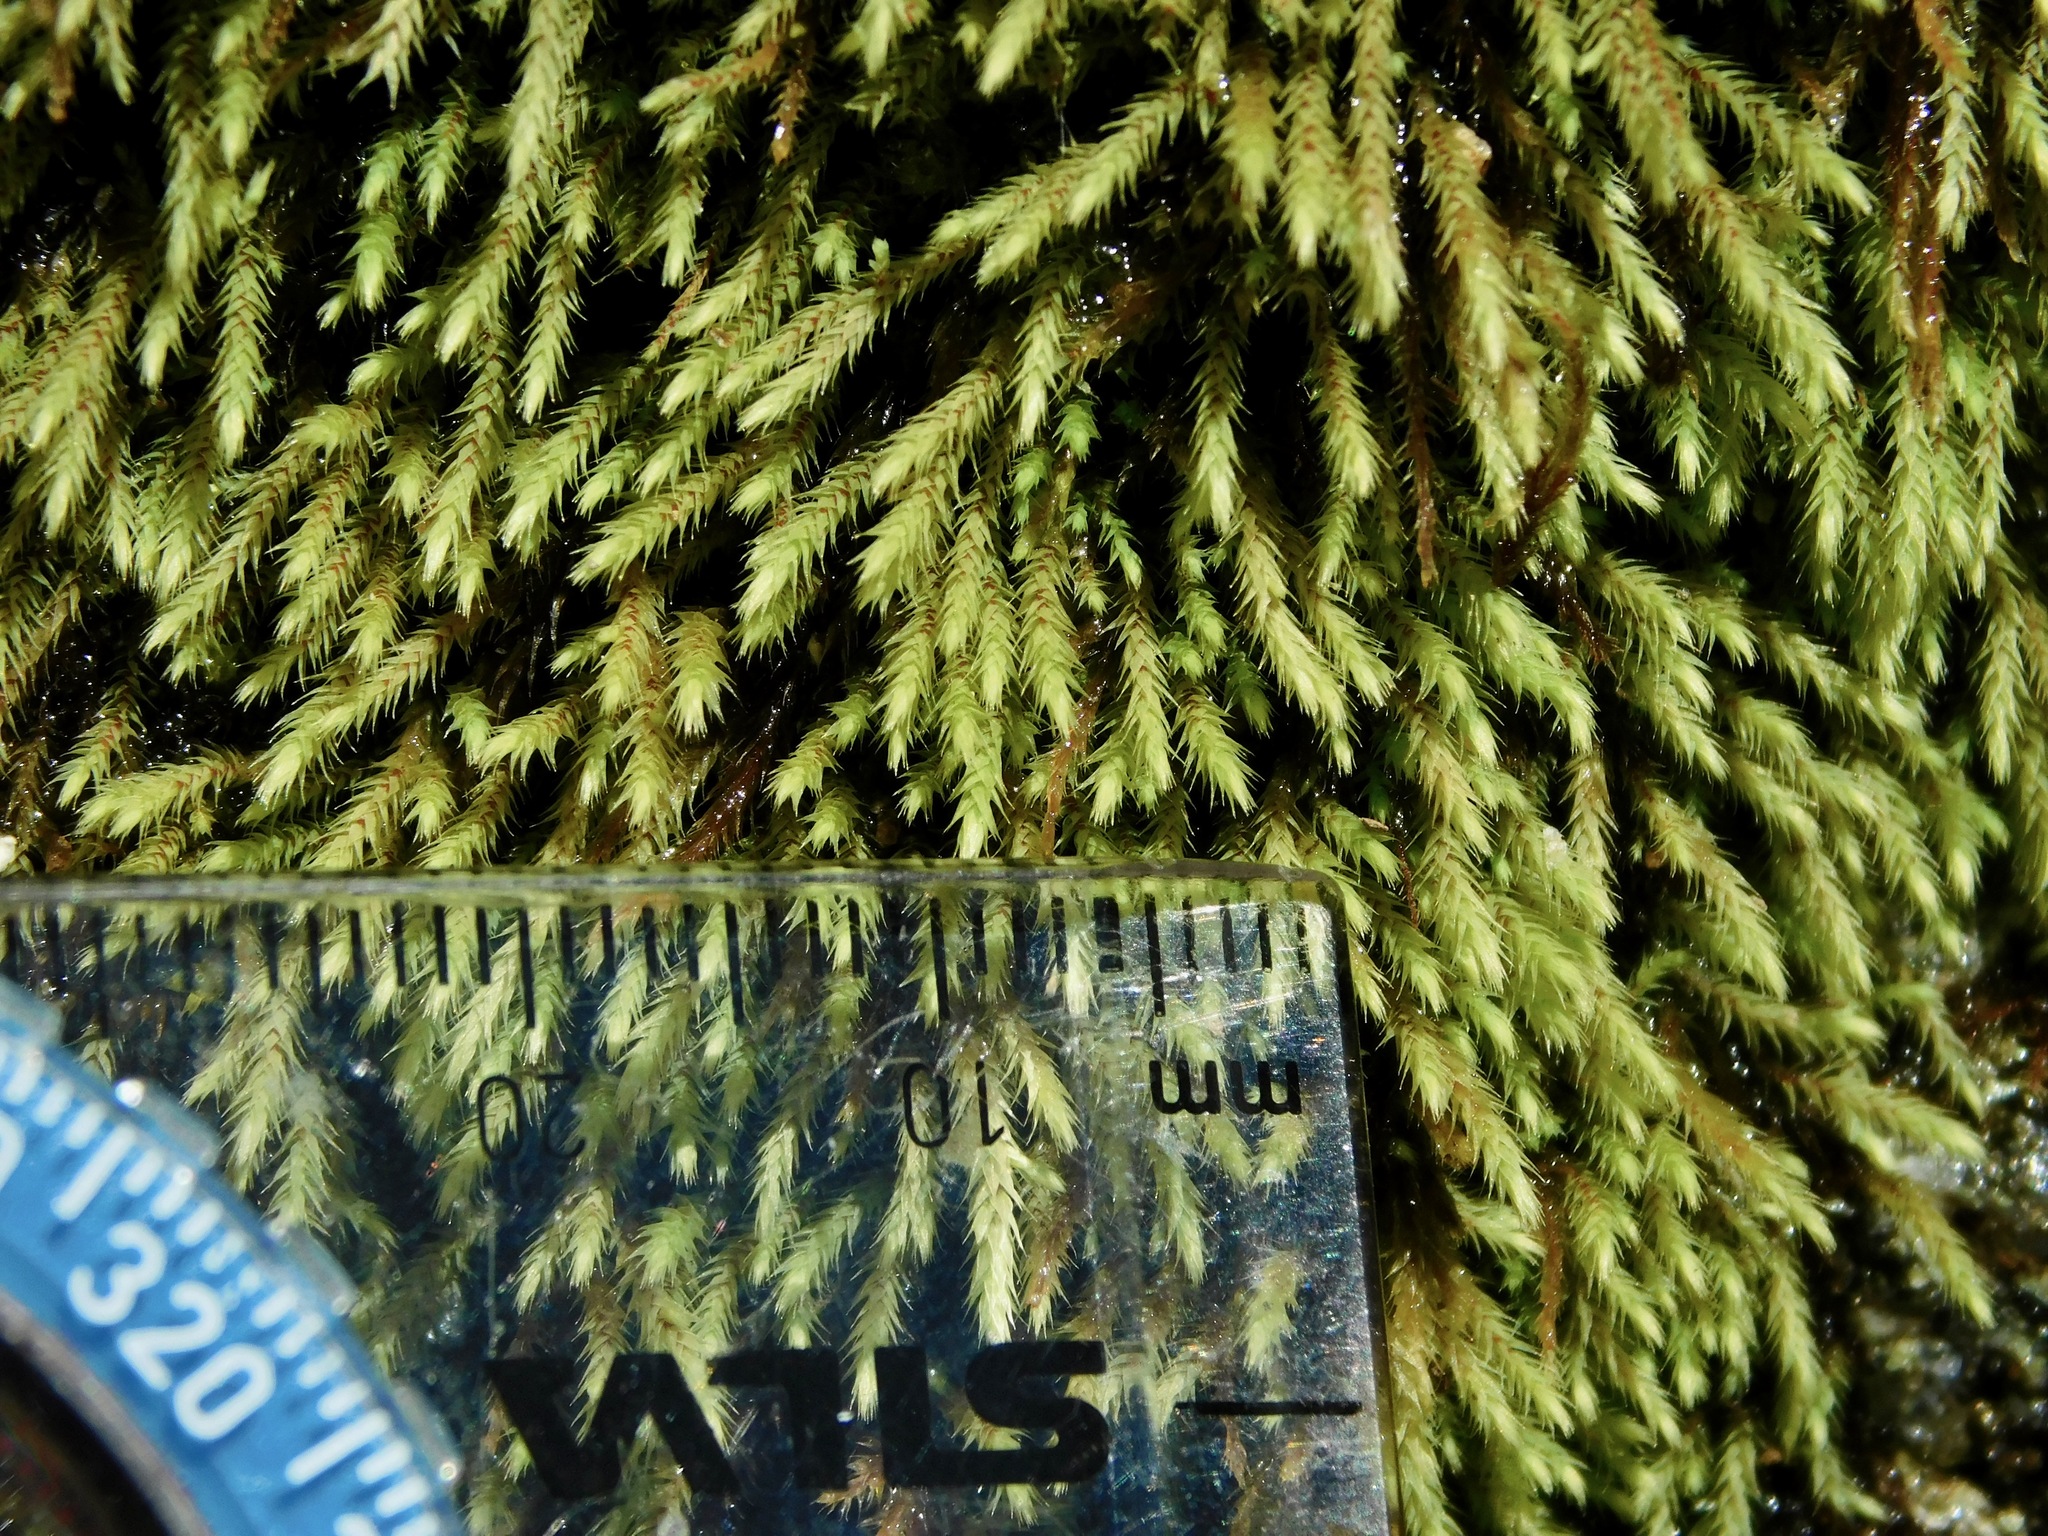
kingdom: Plantae
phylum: Bryophyta
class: Bryopsida
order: Bartramiales
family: Bartramiaceae
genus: Philonotis
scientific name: Philonotis capillaris
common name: Arnell's apple-moss
